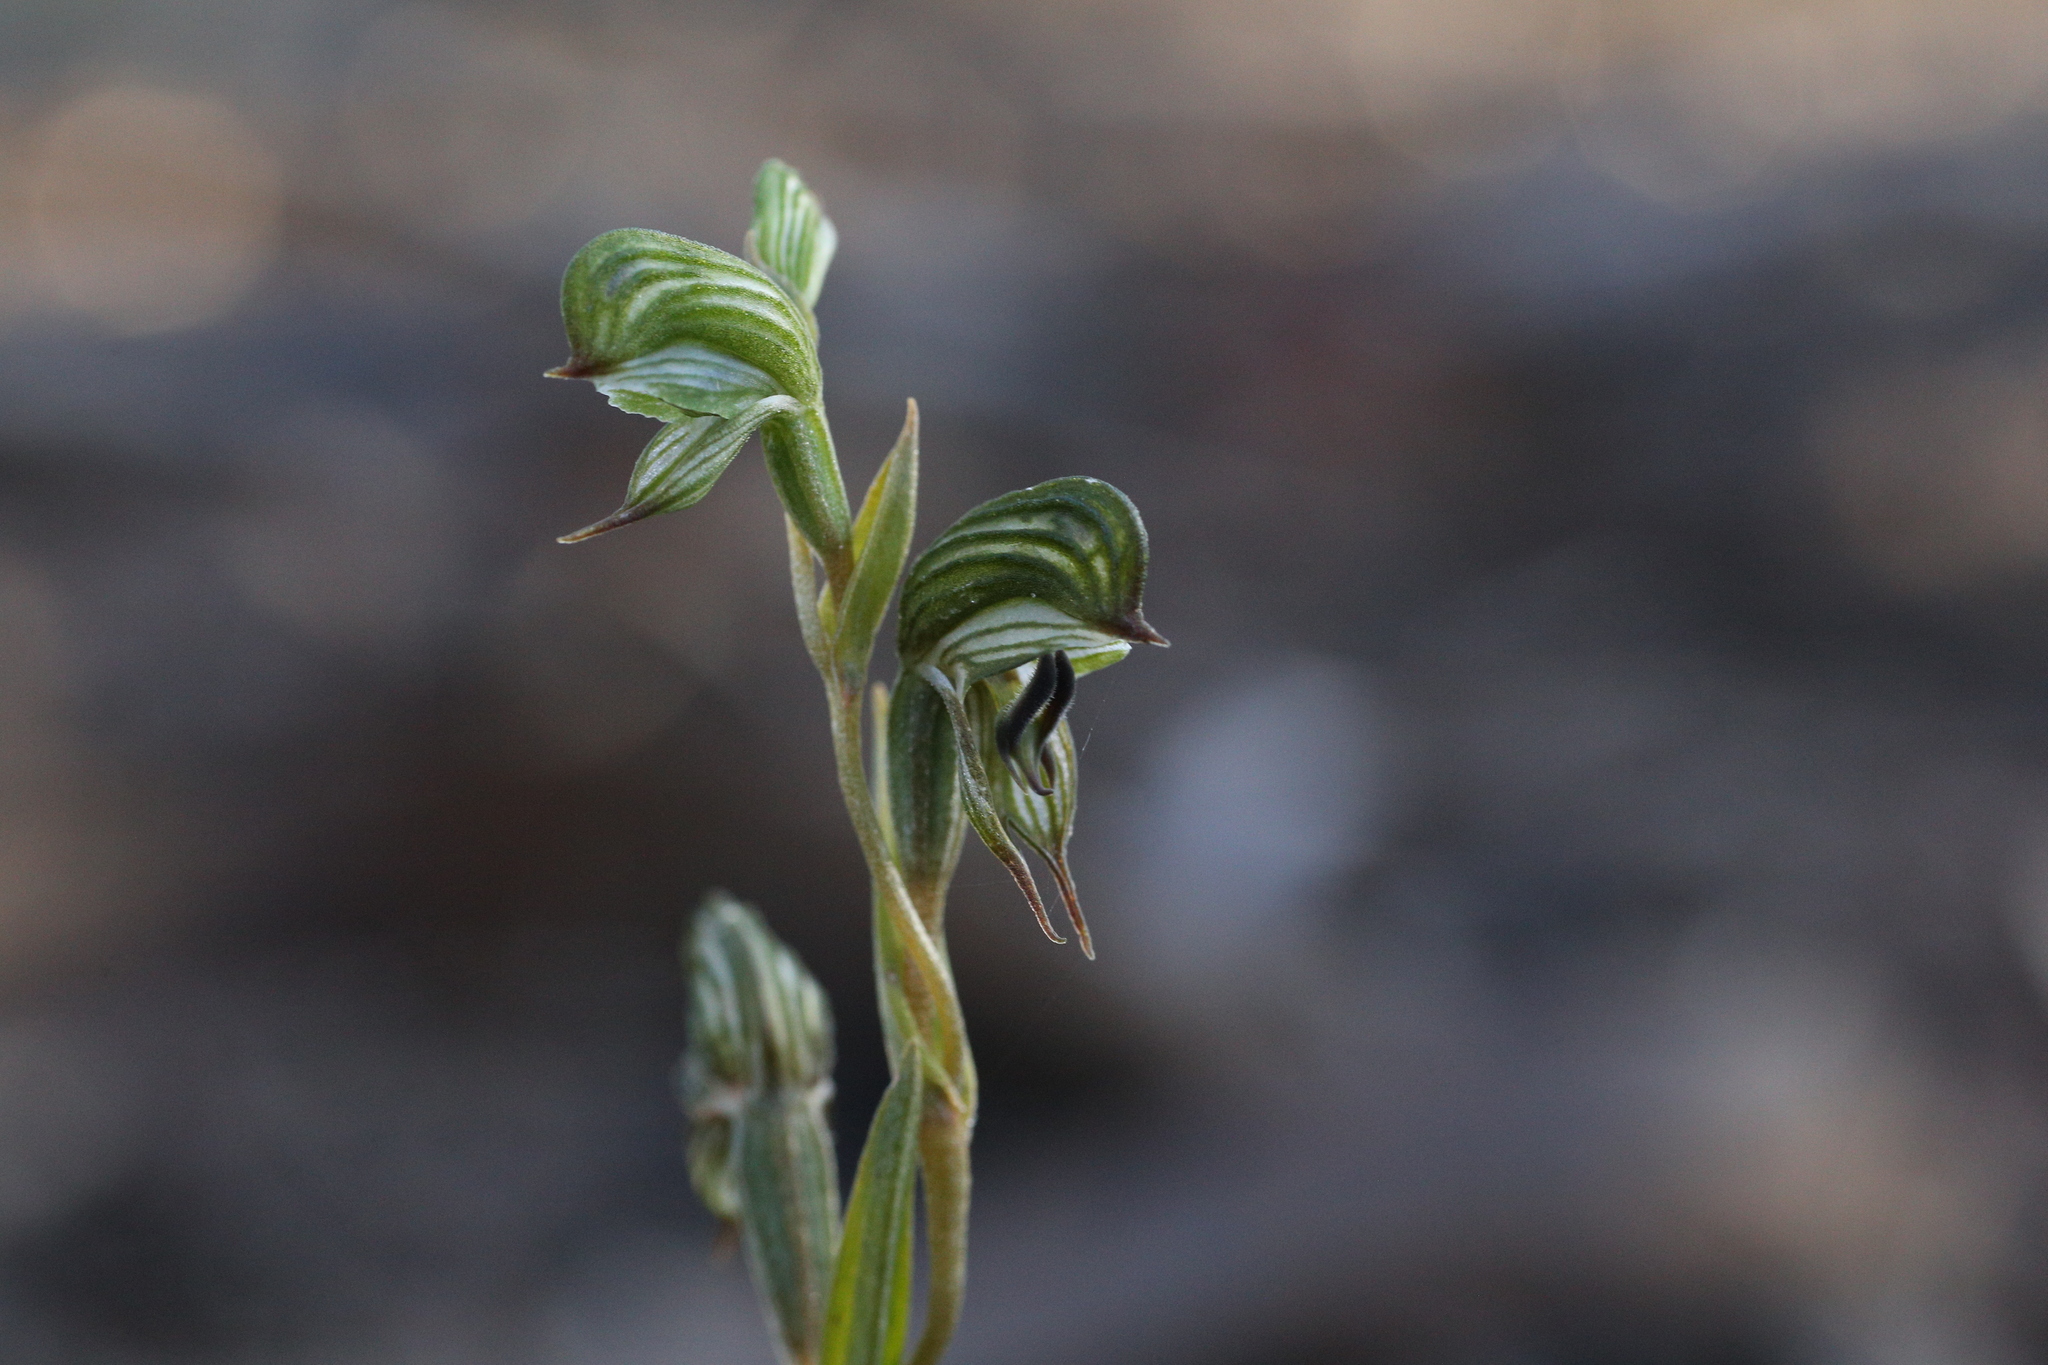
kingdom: Plantae
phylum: Tracheophyta
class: Liliopsida
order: Asparagales
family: Orchidaceae
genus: Pterostylis
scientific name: Pterostylis
